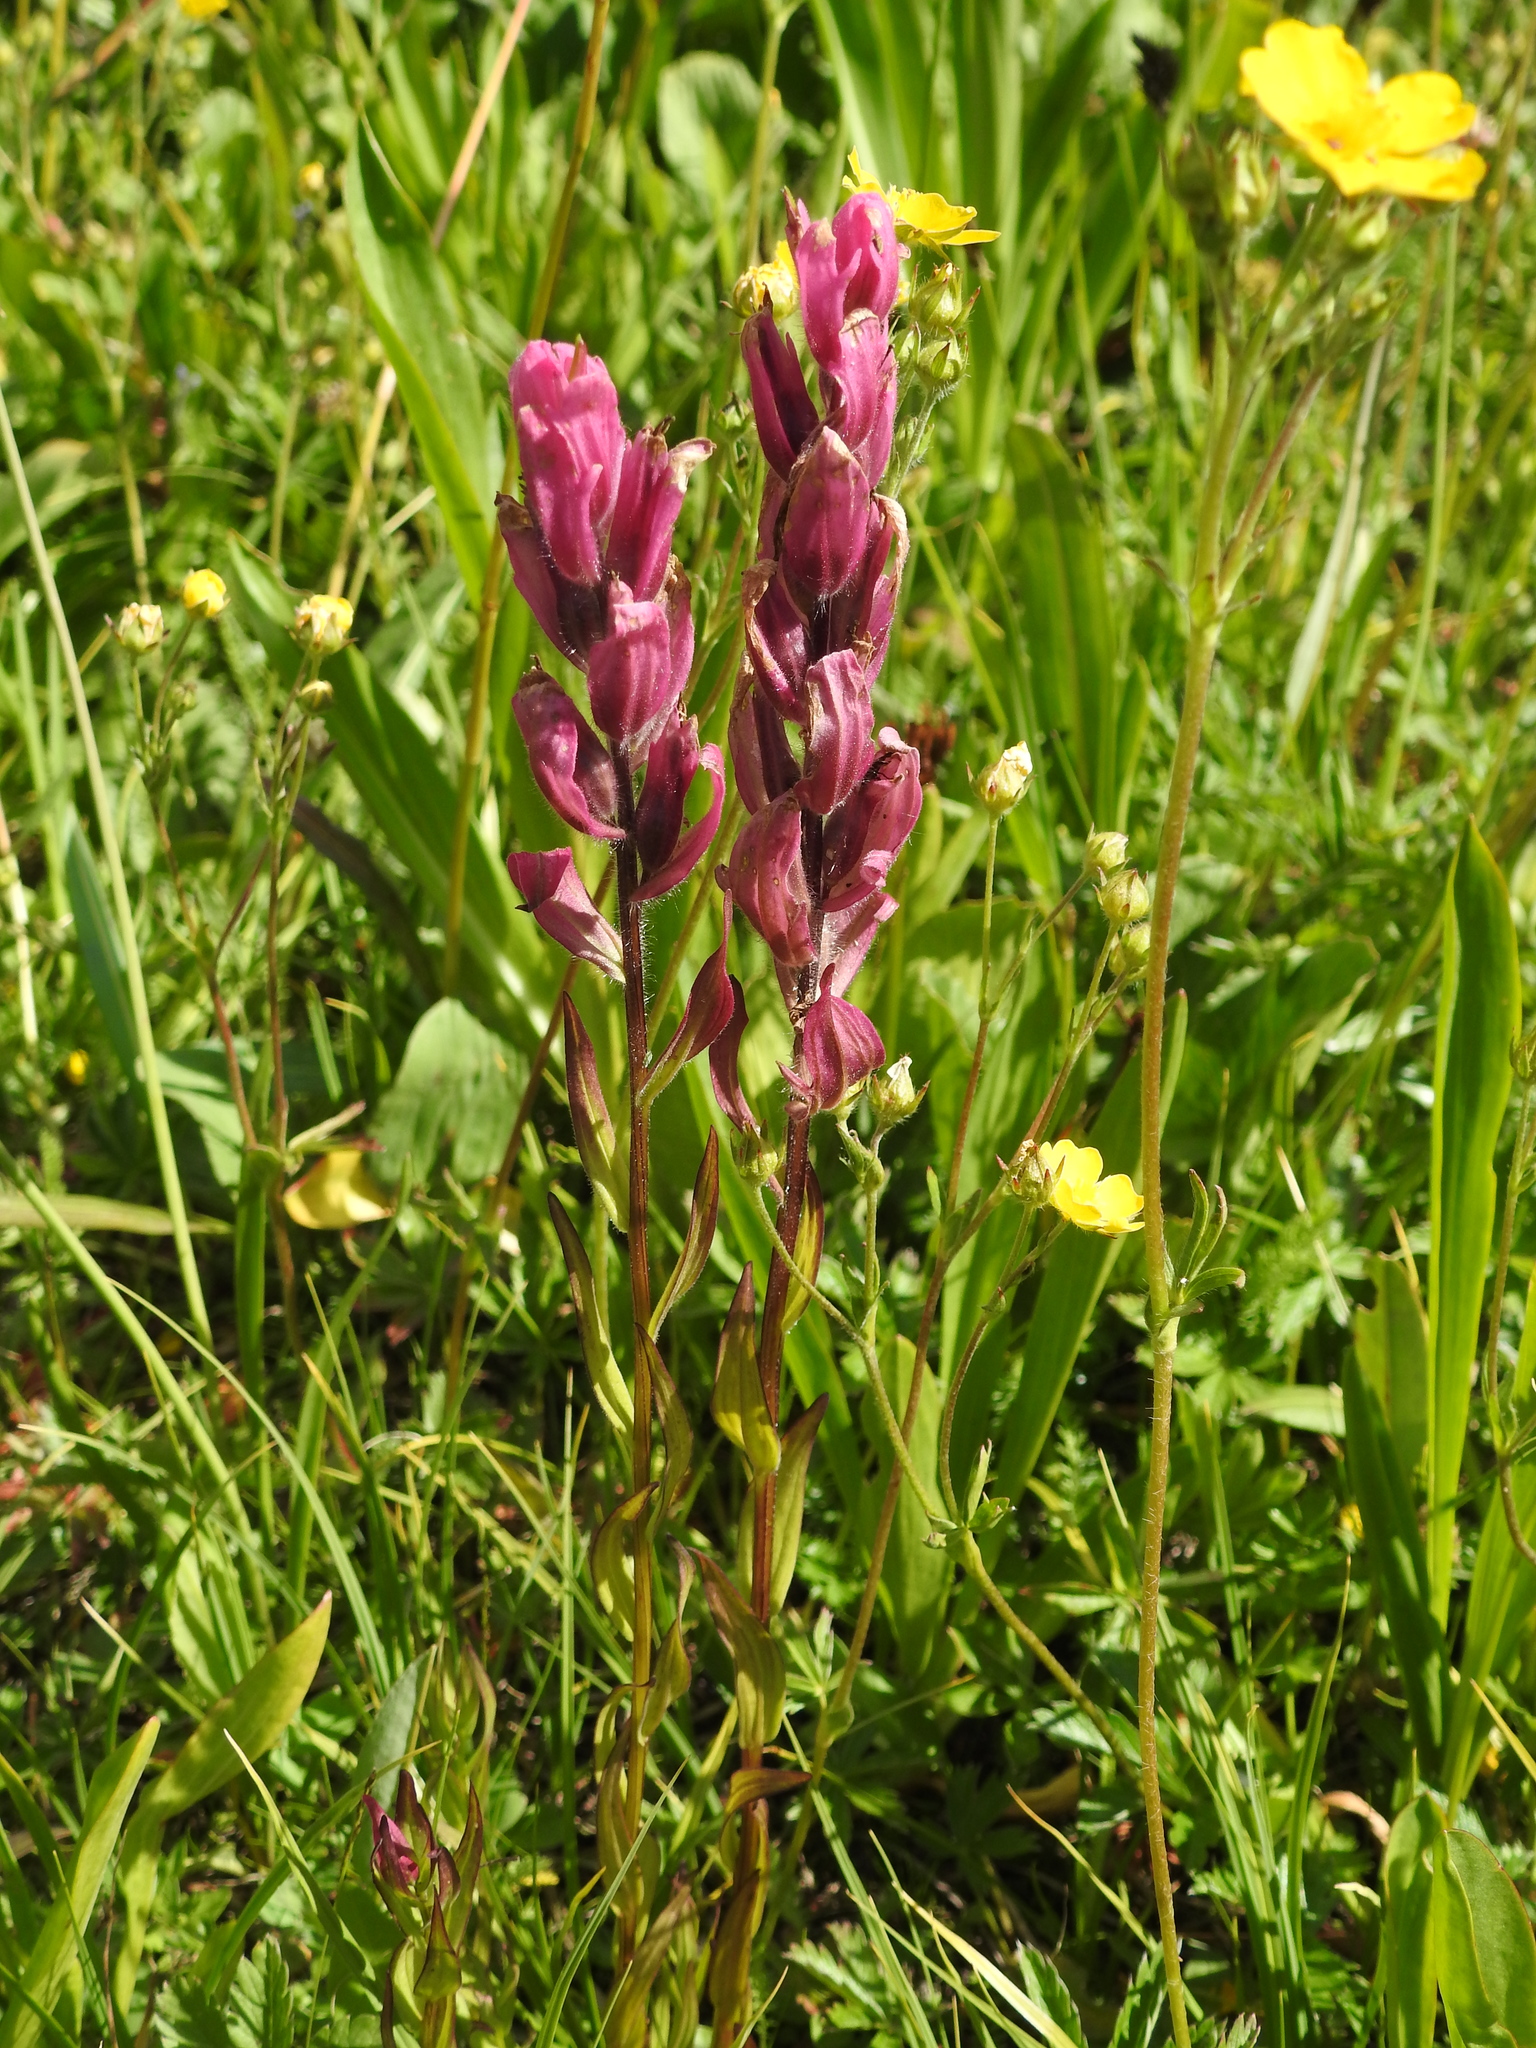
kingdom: Plantae
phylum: Tracheophyta
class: Magnoliopsida
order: Lamiales
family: Orobanchaceae
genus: Castilleja
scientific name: Castilleja rhexifolia
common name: Rocky mountain paintbrush
